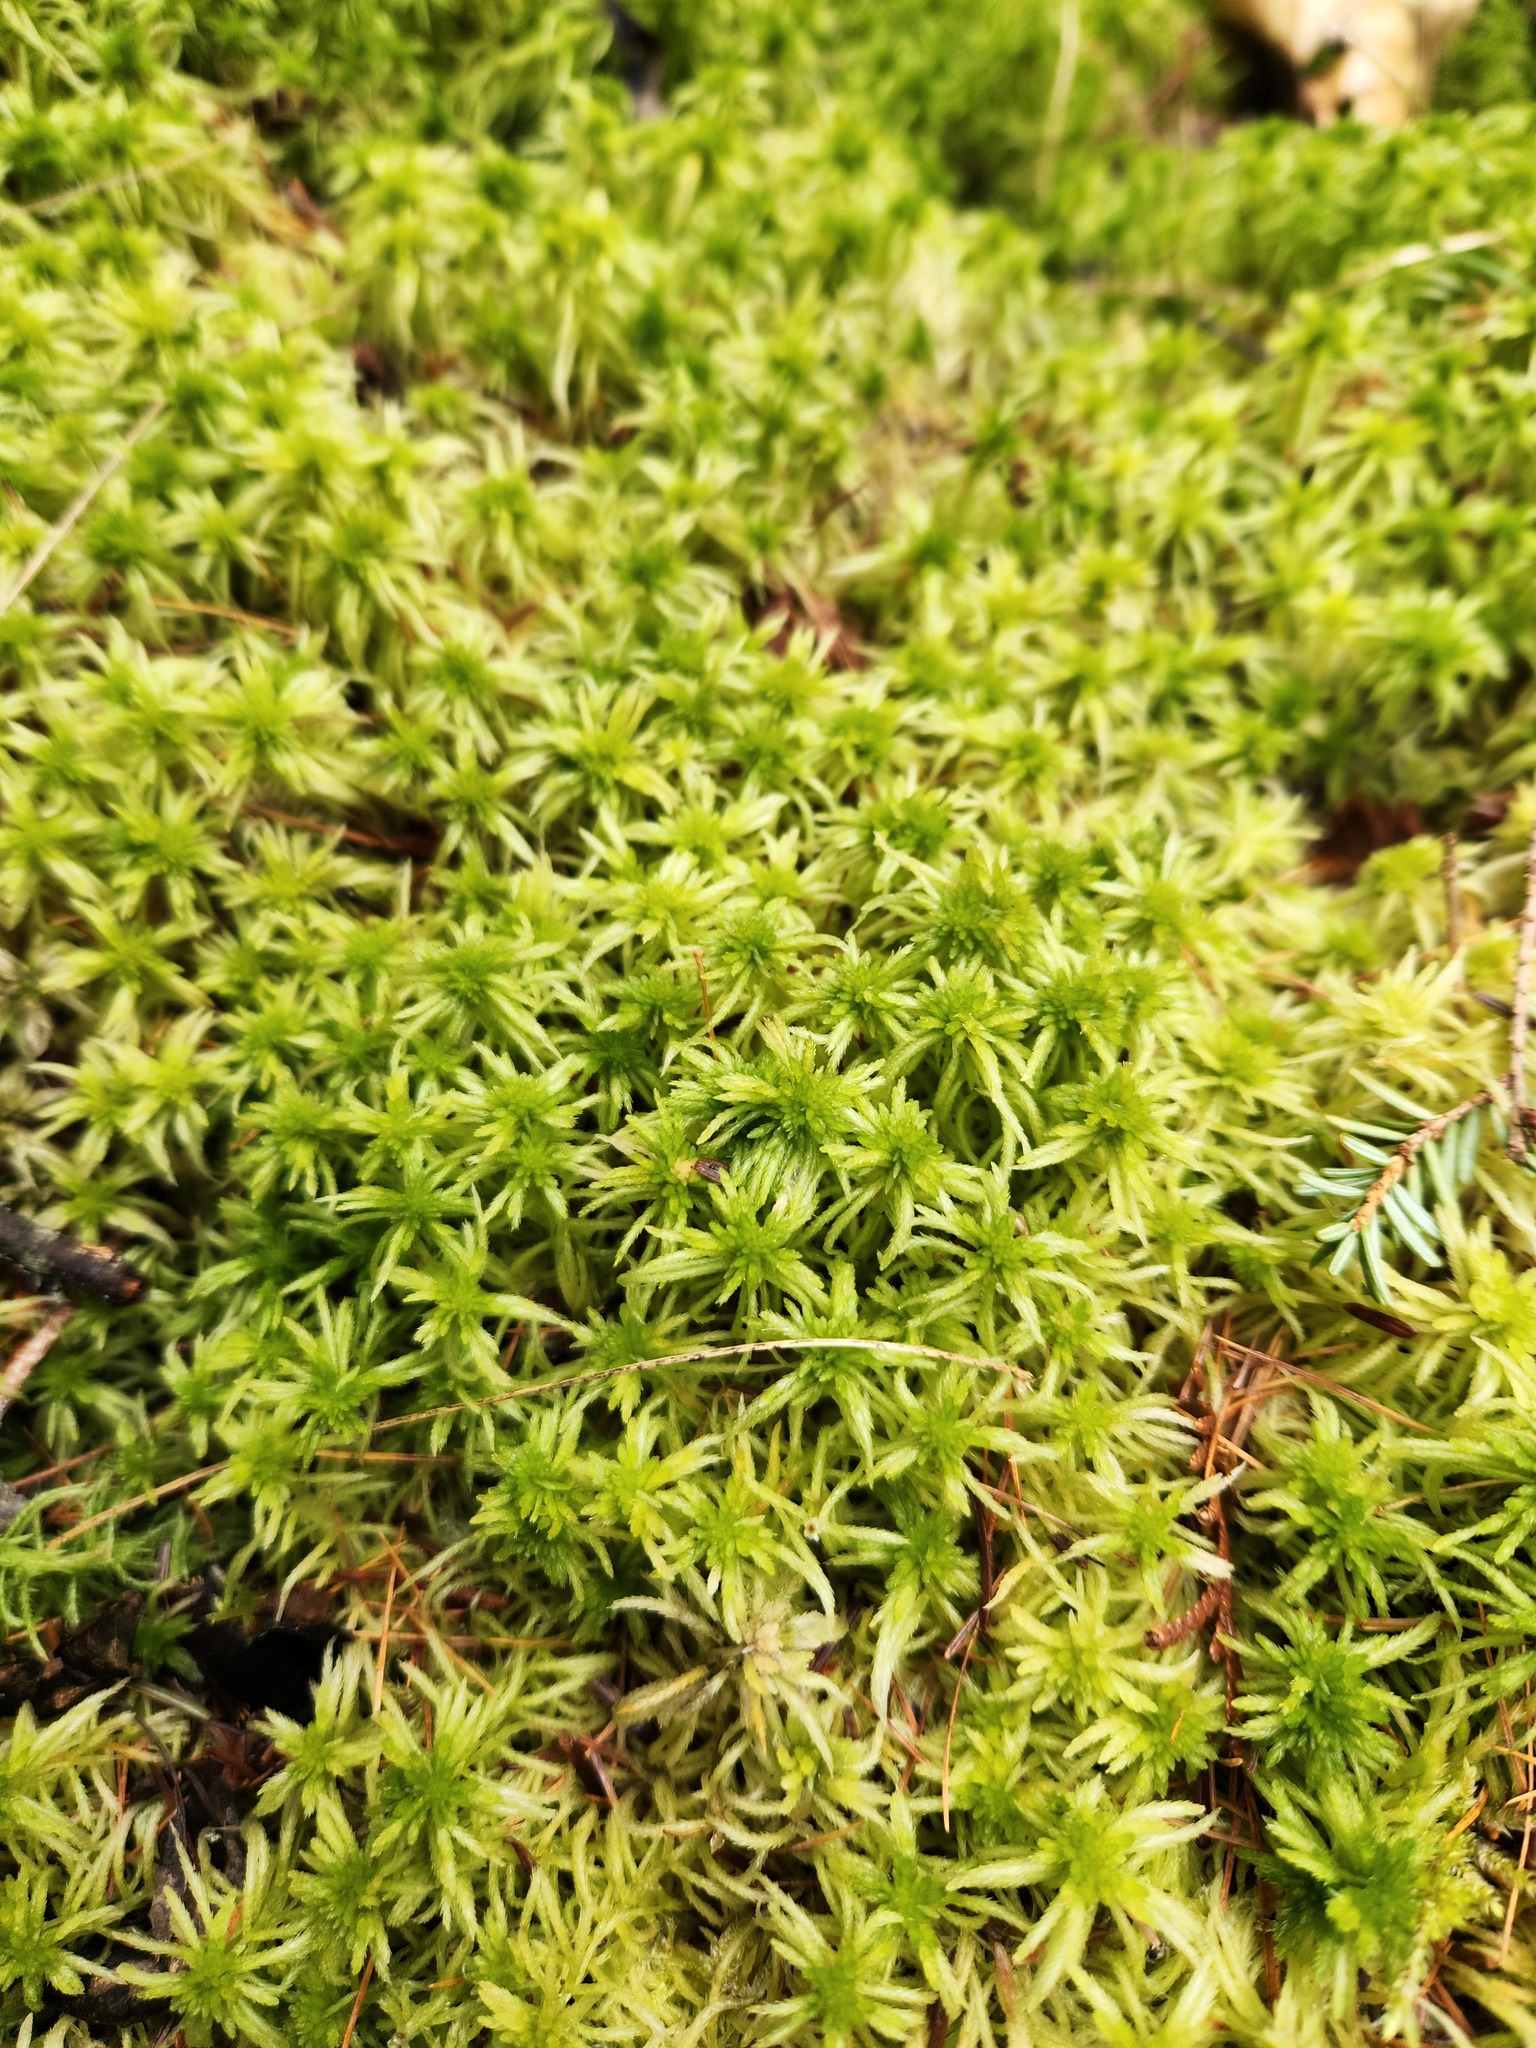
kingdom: Plantae
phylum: Bryophyta
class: Sphagnopsida
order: Sphagnales
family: Sphagnaceae
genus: Sphagnum
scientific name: Sphagnum girgensohnii
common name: Girgensohn's peat moss
